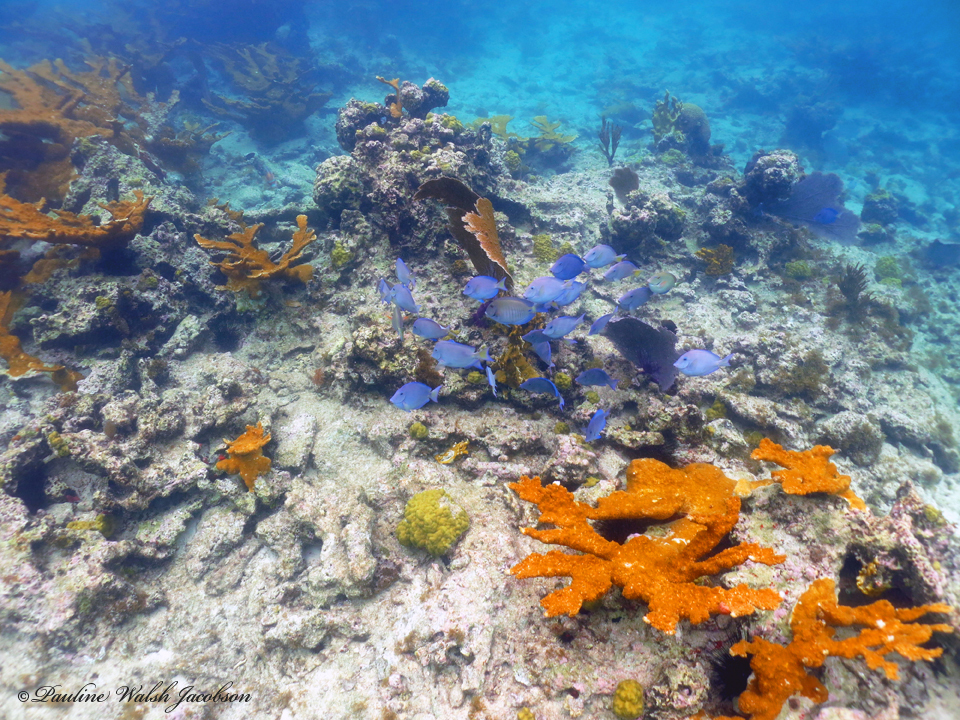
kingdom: Animalia
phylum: Chordata
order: Perciformes
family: Acanthuridae
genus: Acanthurus
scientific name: Acanthurus coeruleus
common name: Blue tang
